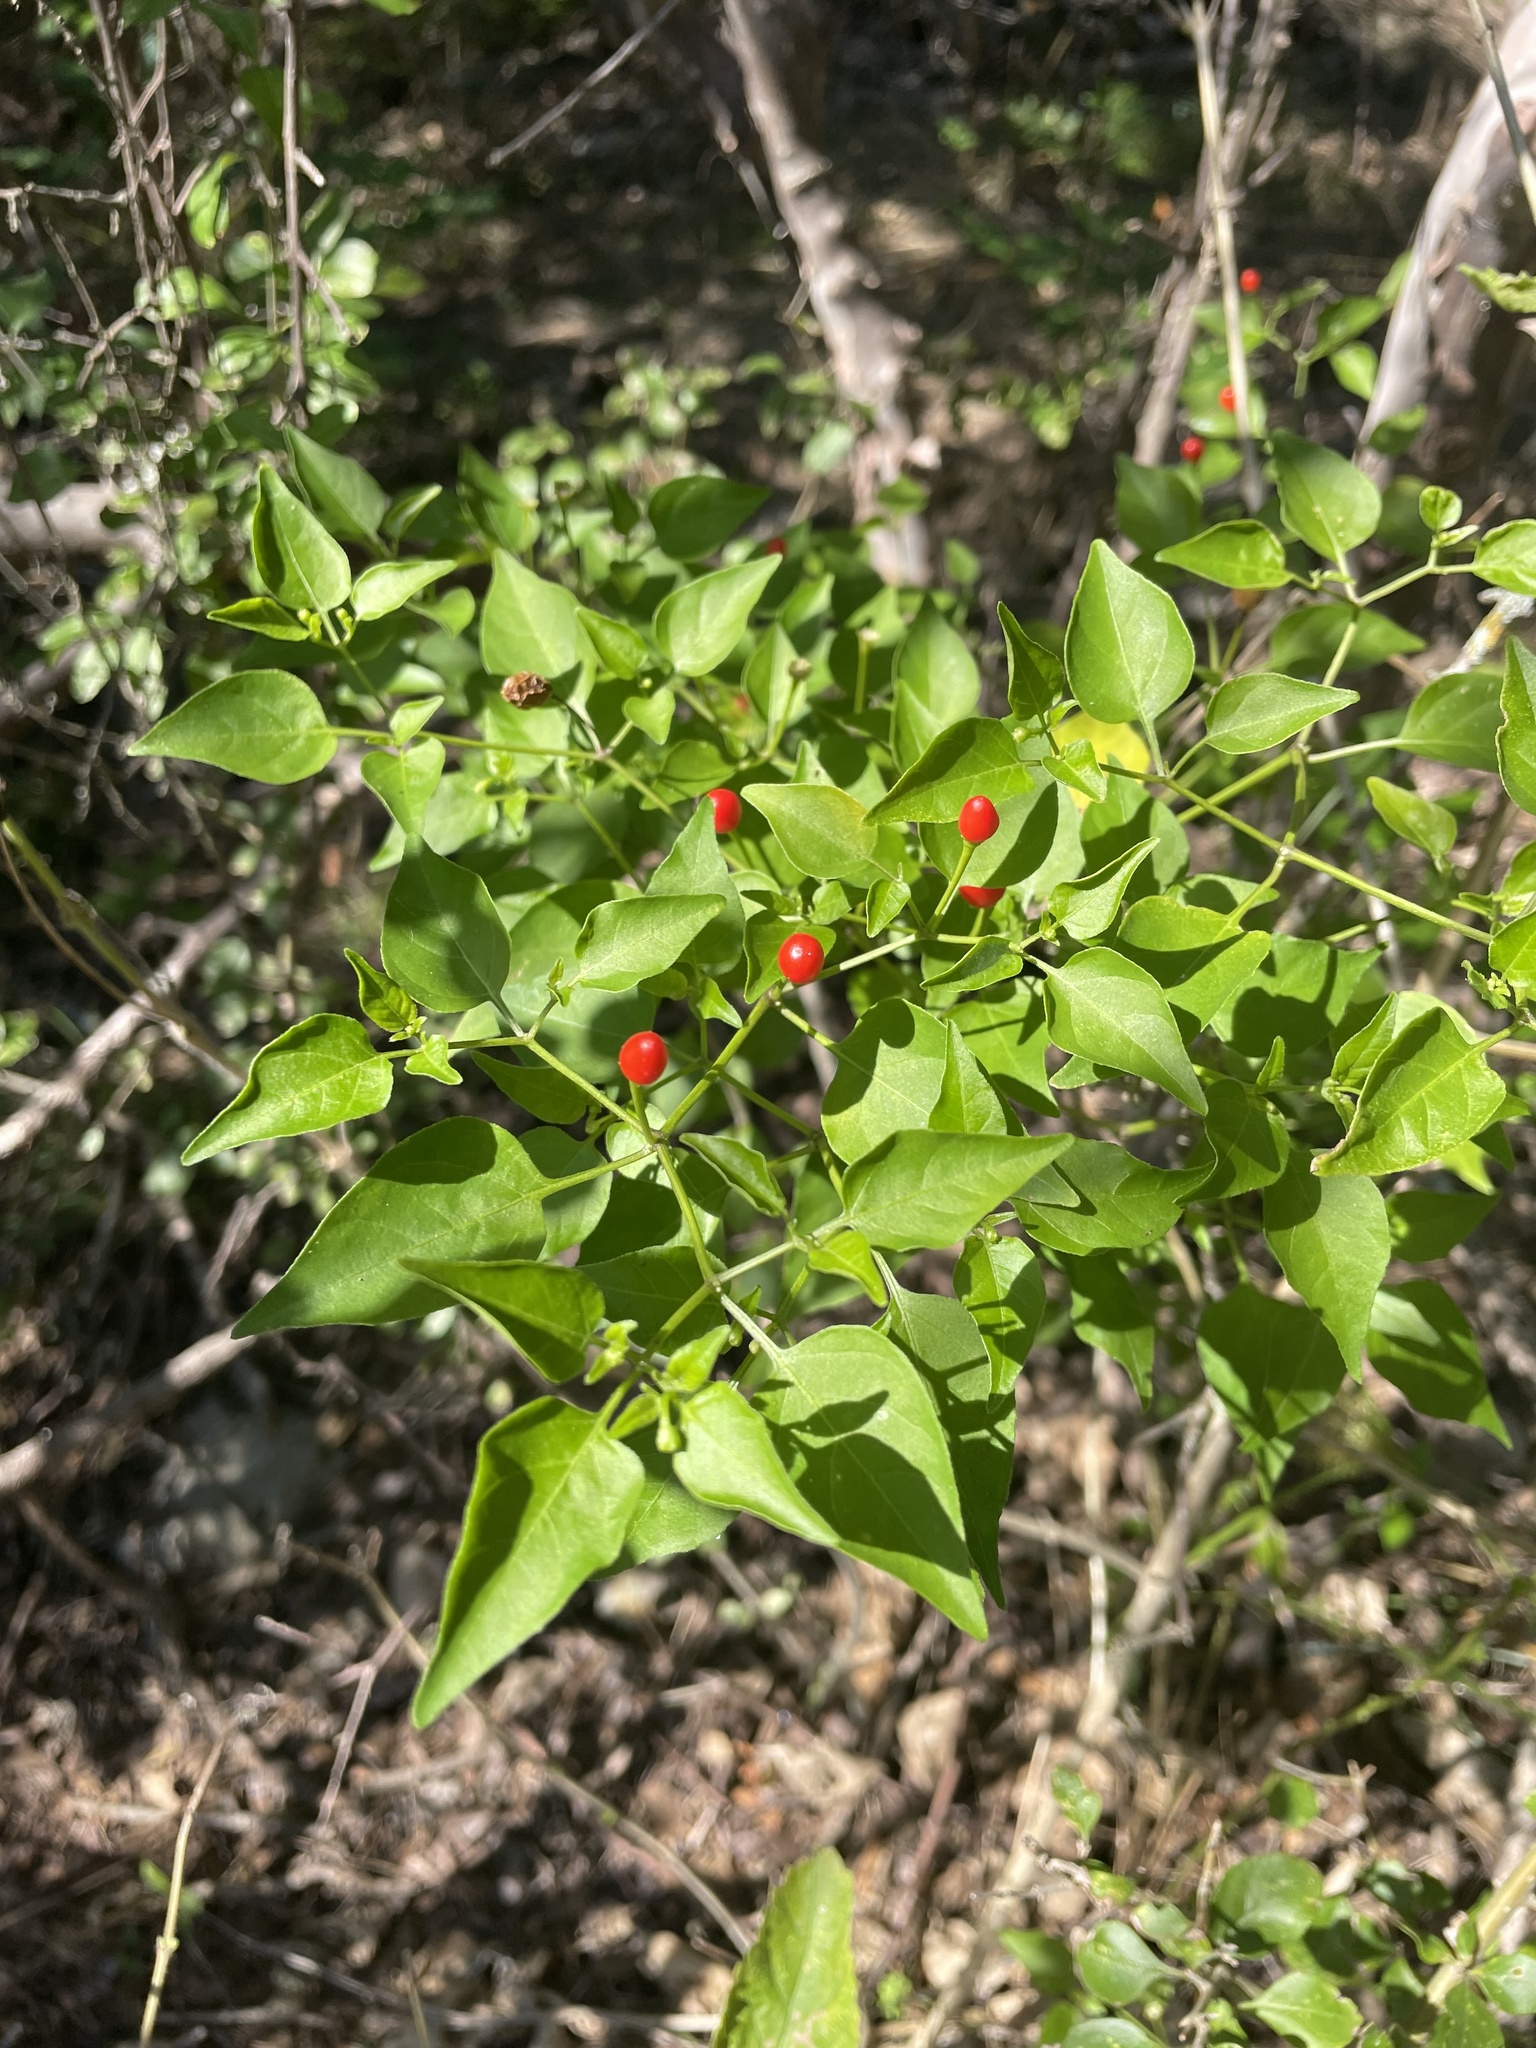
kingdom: Plantae
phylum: Tracheophyta
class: Magnoliopsida
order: Solanales
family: Solanaceae
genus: Capsicum
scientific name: Capsicum annuum
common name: Sweet pepper
